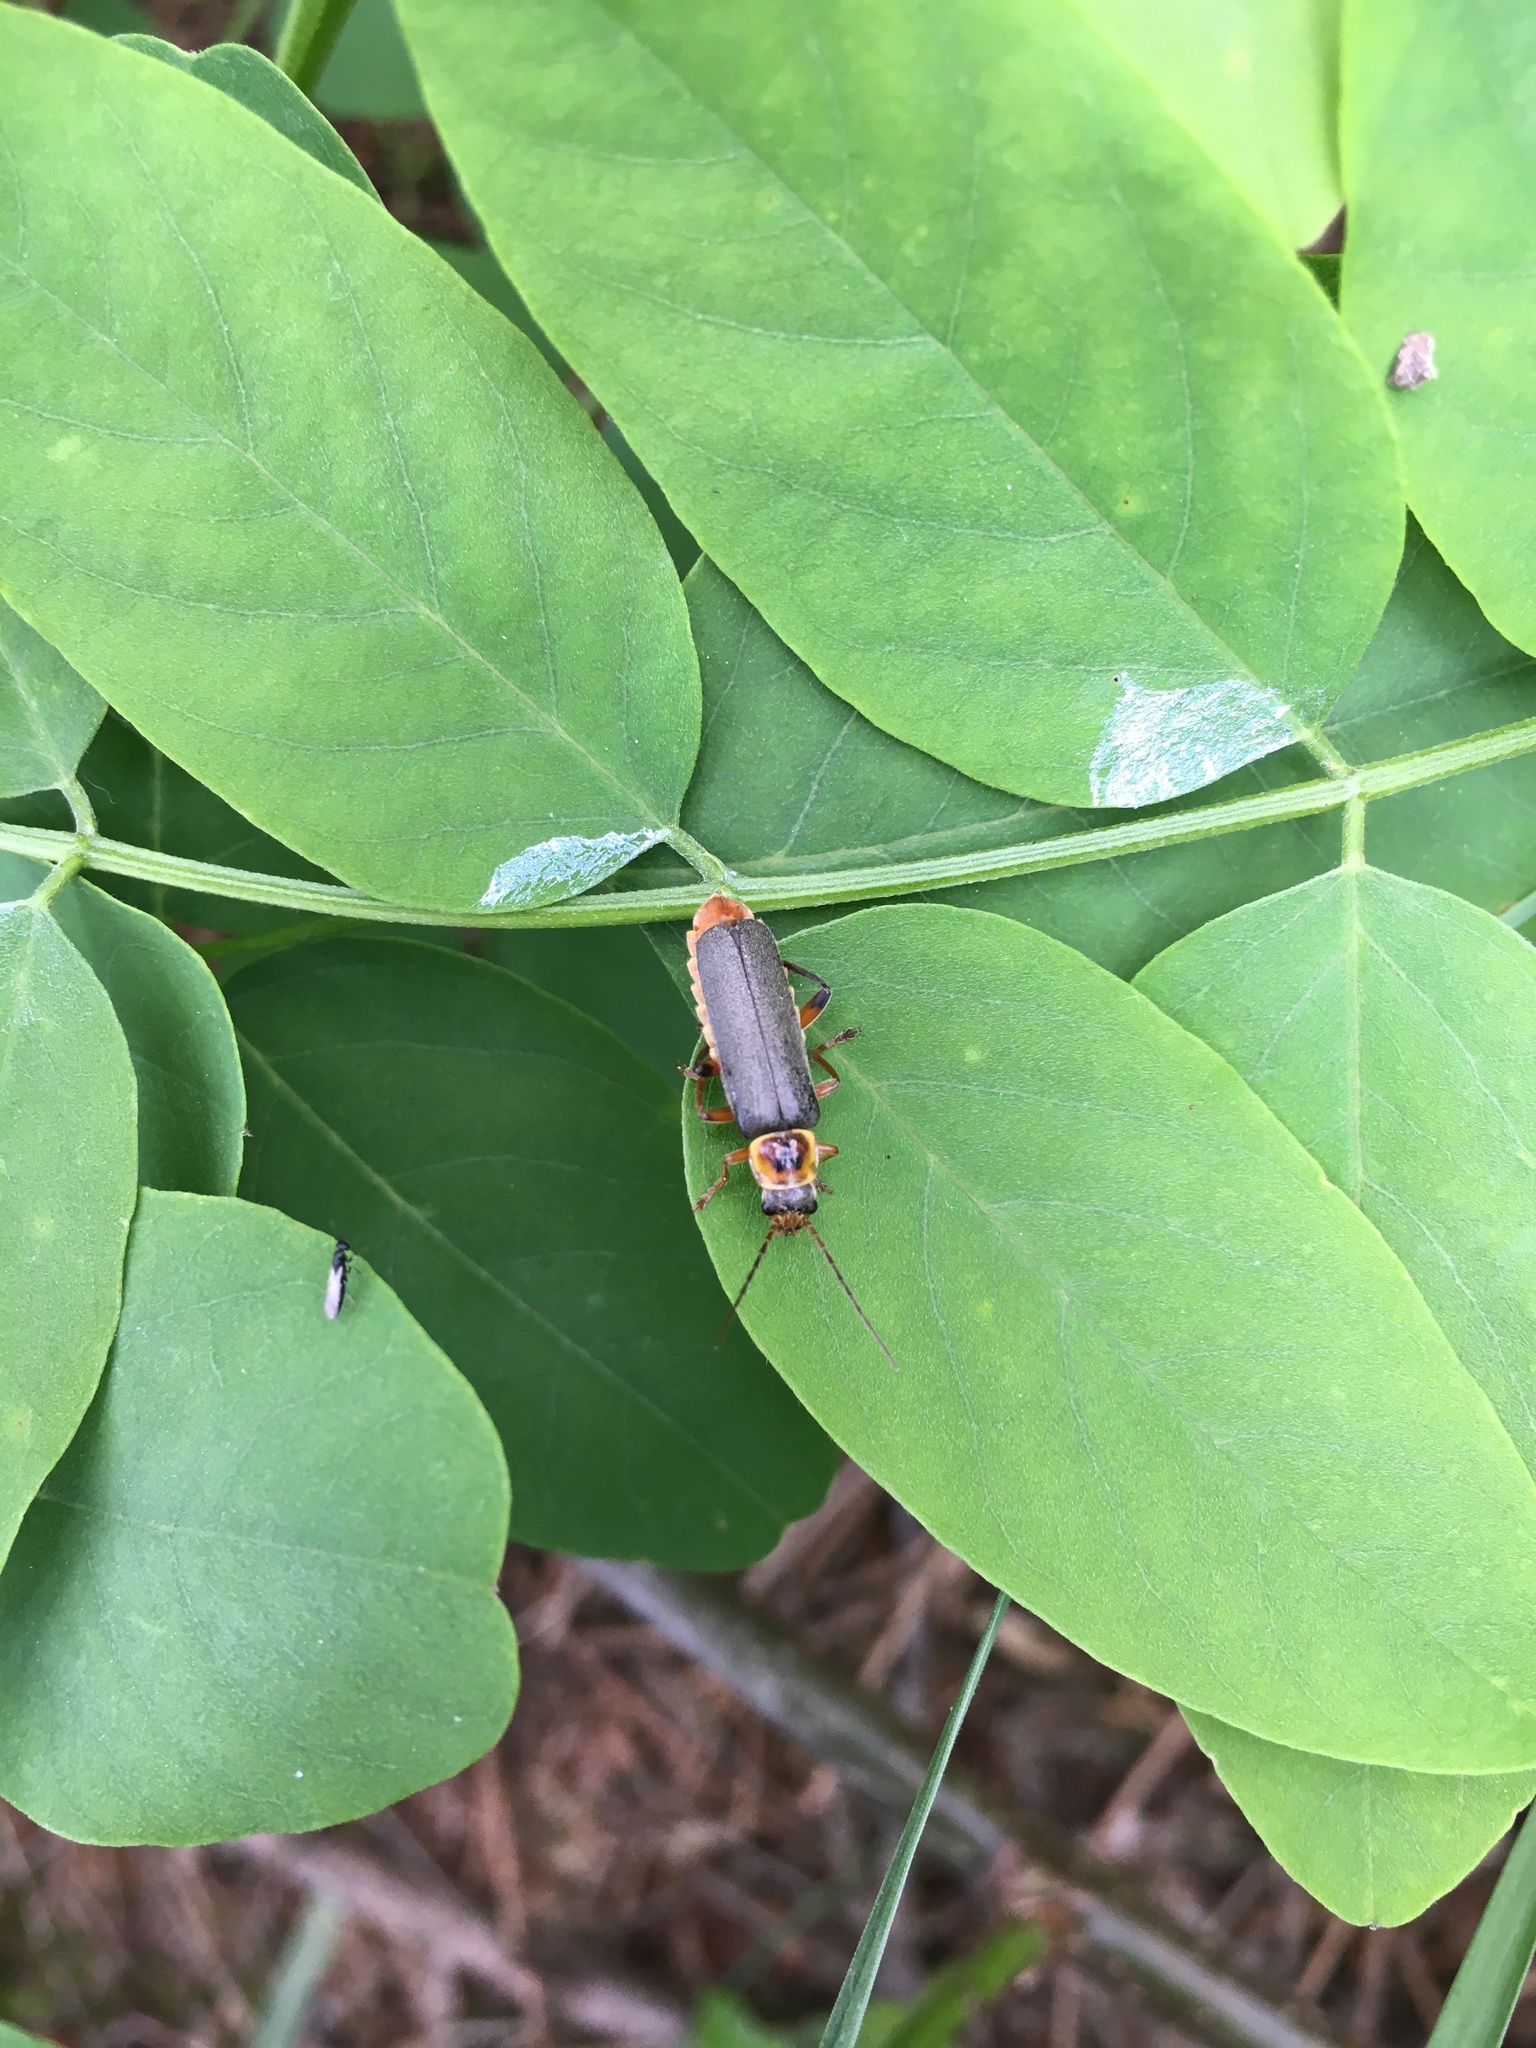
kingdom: Animalia
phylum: Arthropoda
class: Insecta
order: Coleoptera
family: Cantharidae
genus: Cantharis
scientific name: Cantharis nigricans
